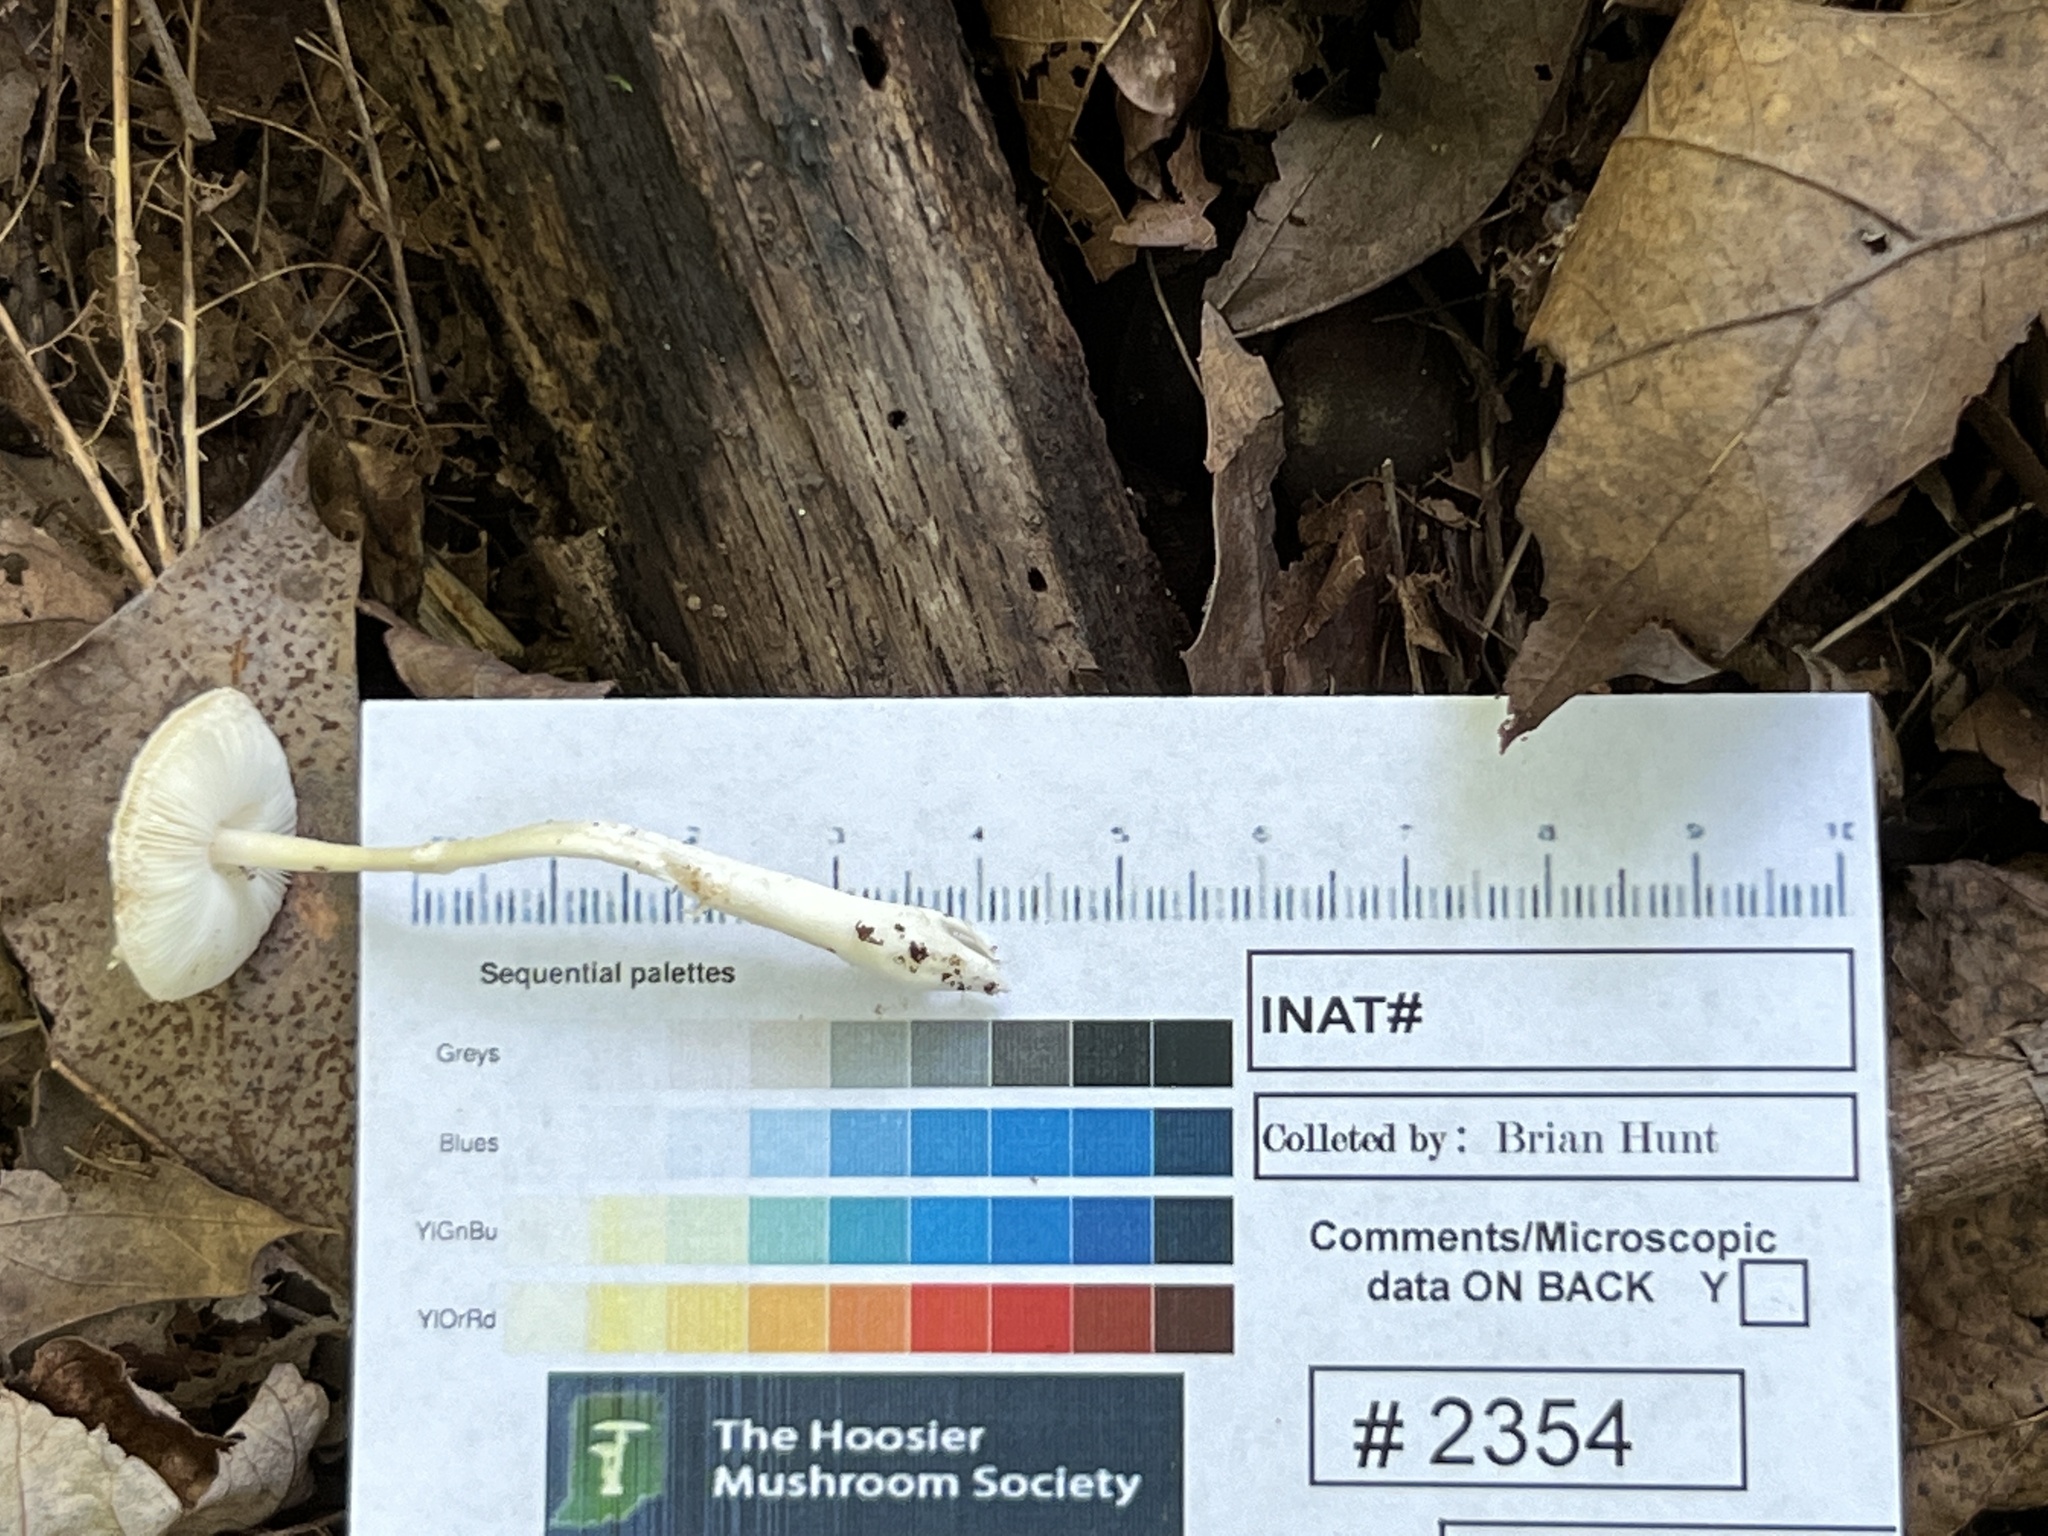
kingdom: Fungi
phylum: Basidiomycota
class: Agaricomycetes
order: Agaricales
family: Agaricaceae
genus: Leucocoprinus
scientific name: Leucocoprinus brunnescens
